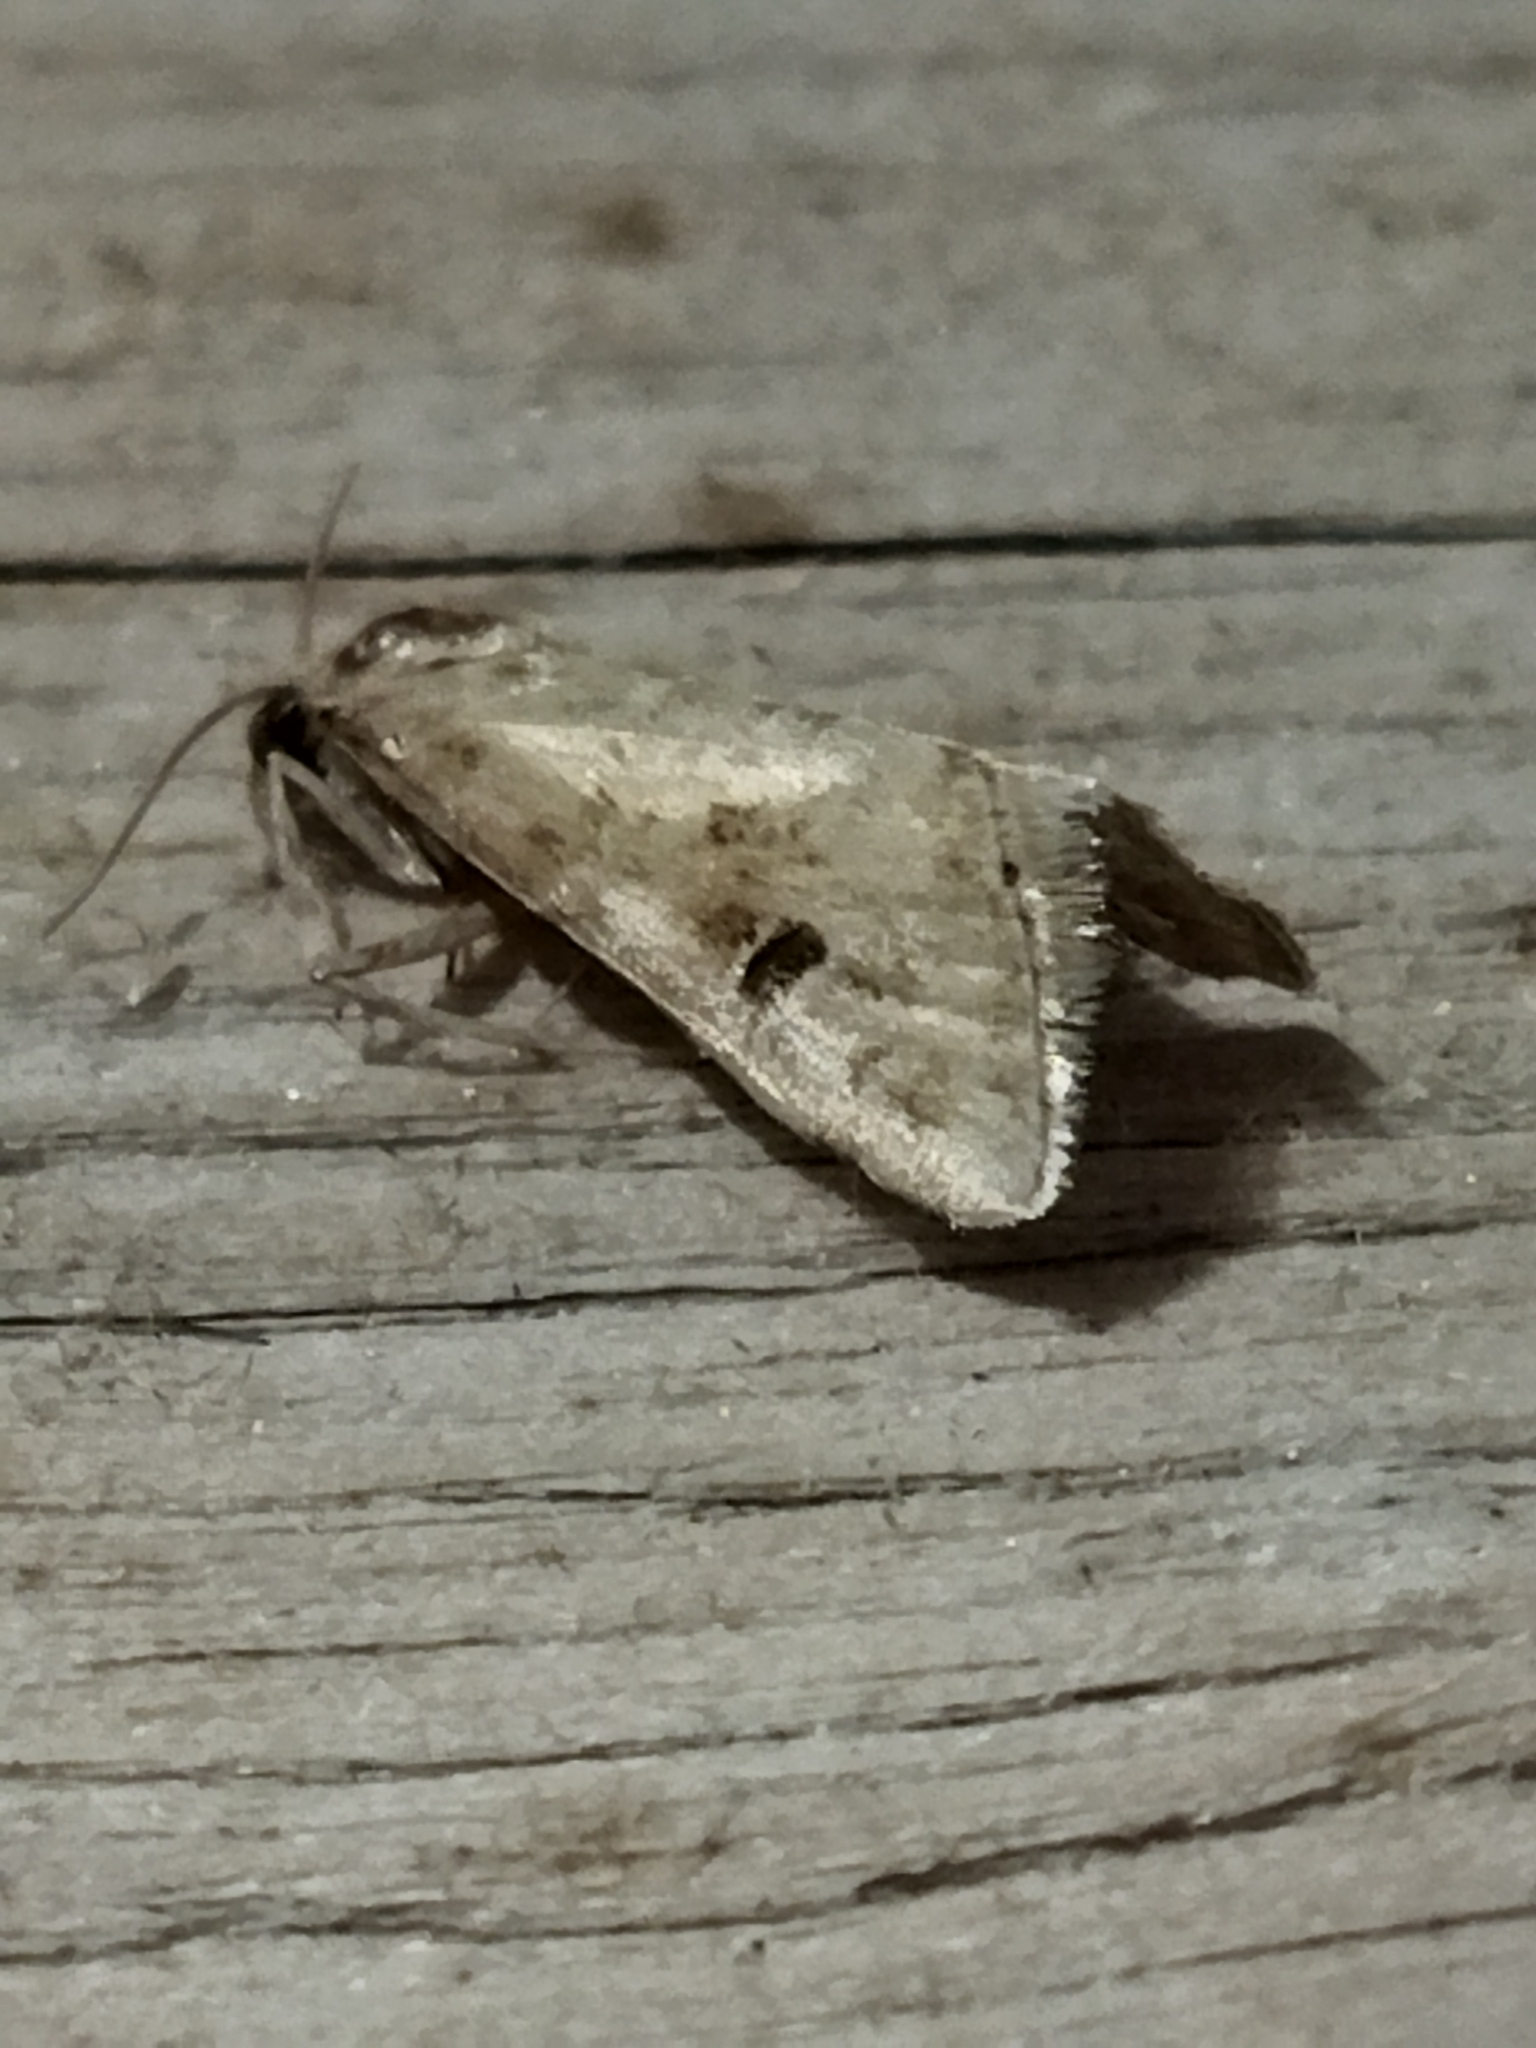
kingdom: Animalia
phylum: Arthropoda
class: Insecta
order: Lepidoptera
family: Crambidae
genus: Hellula
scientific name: Hellula undalis
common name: Cabbage webworm
